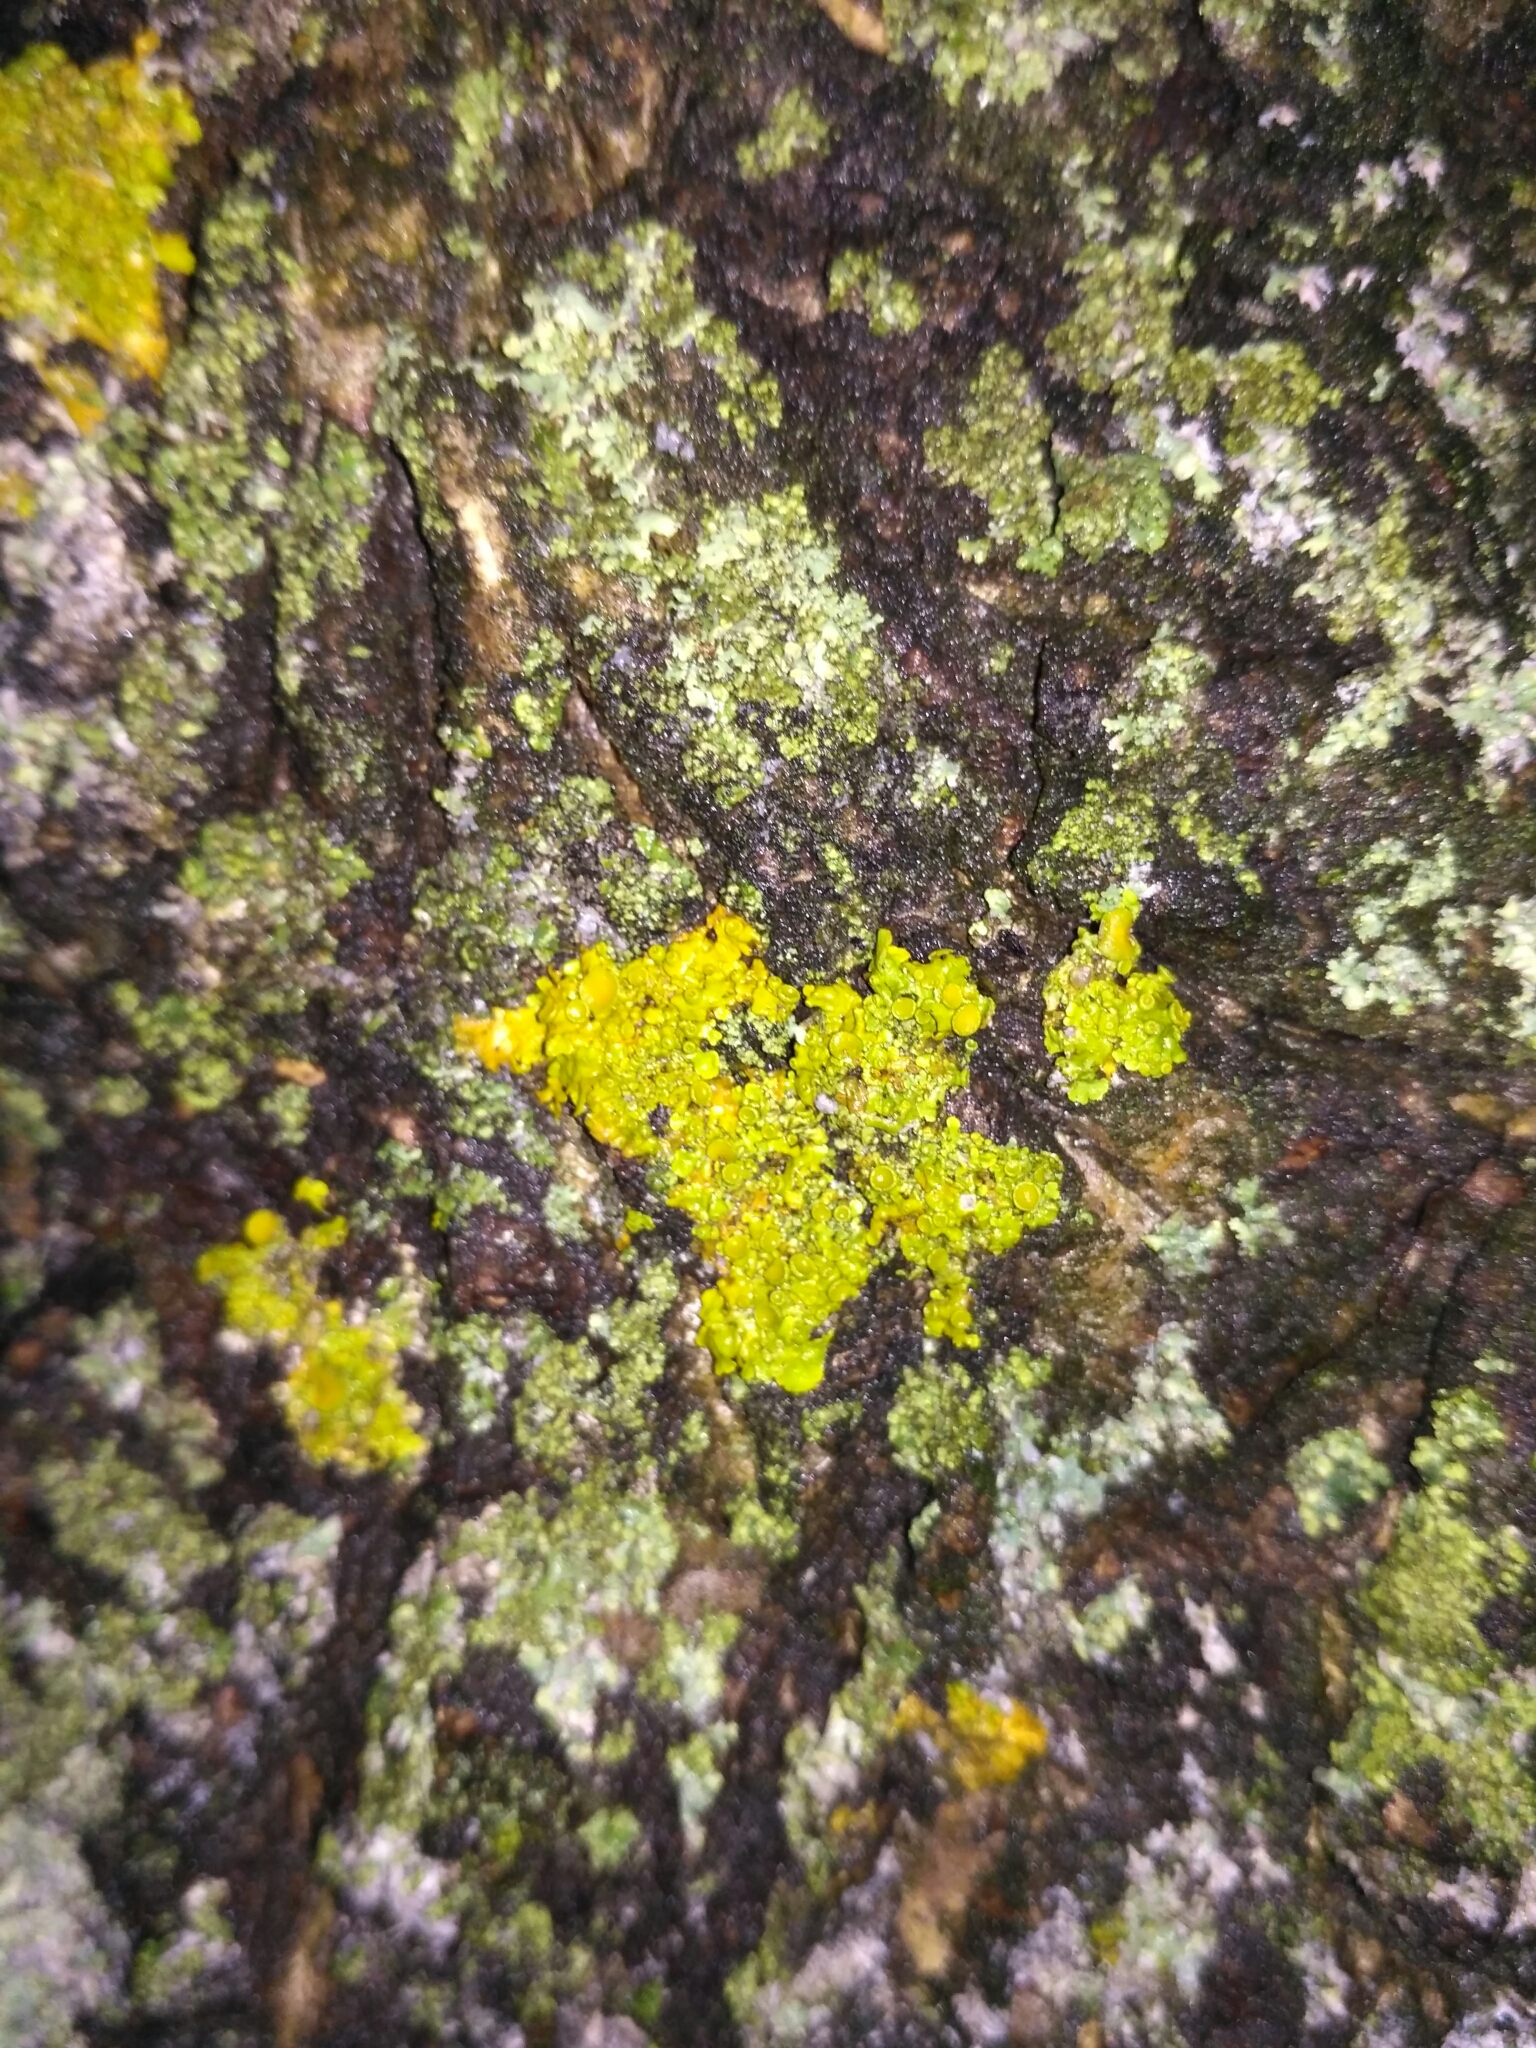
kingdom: Fungi
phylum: Ascomycota
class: Lecanoromycetes
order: Teloschistales
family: Teloschistaceae
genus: Xanthoria
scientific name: Xanthoria parietina
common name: Common orange lichen
